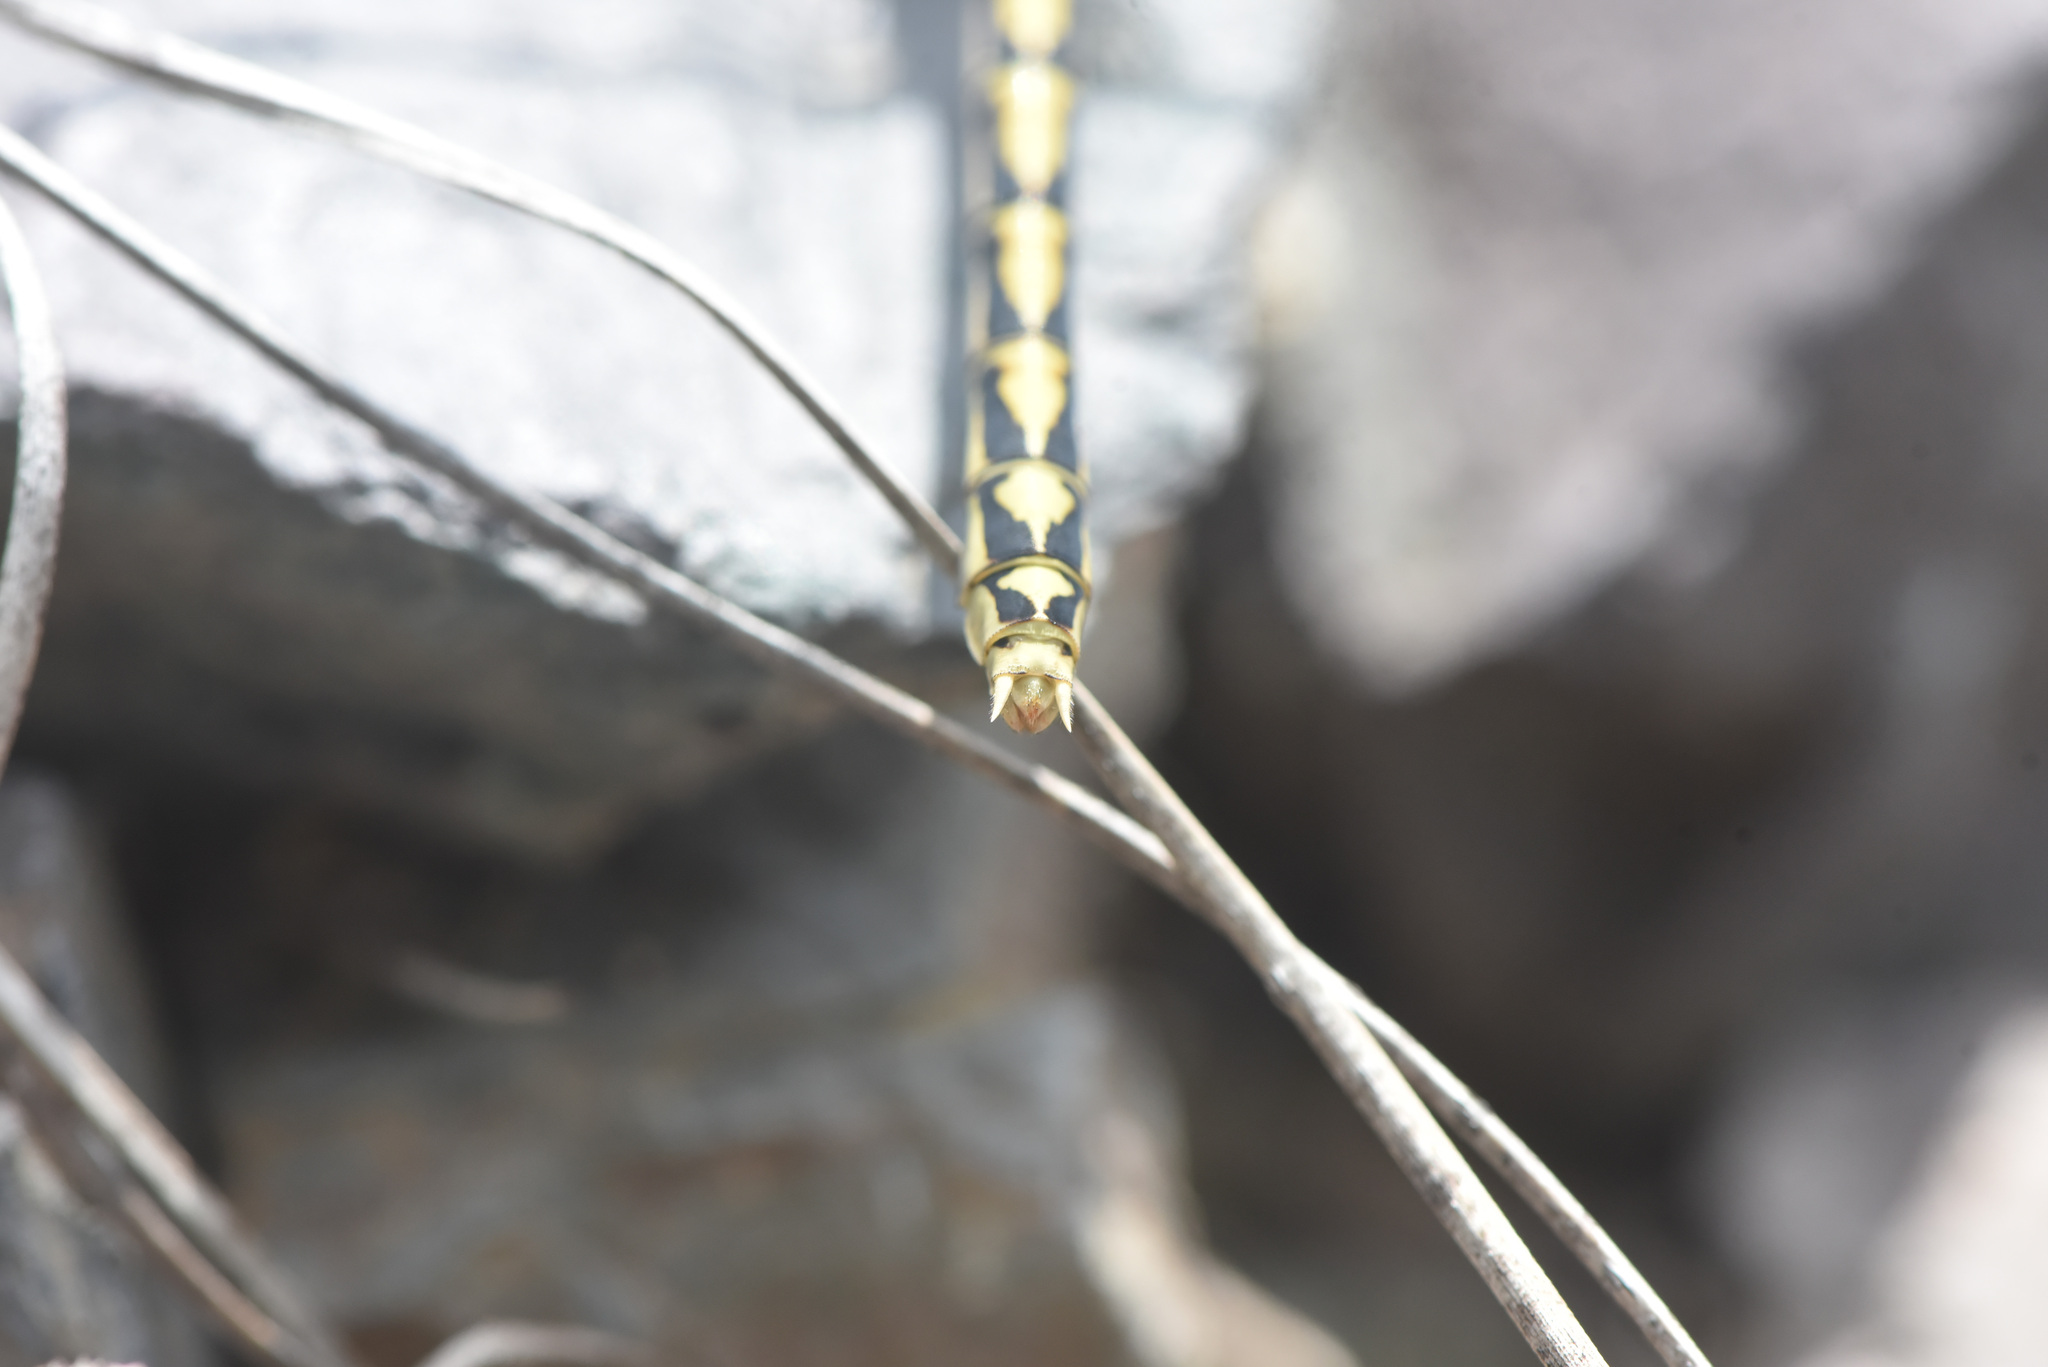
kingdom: Animalia
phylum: Arthropoda
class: Insecta
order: Odonata
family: Gomphidae
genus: Ophiogomphus
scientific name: Ophiogomphus severus
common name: Pale snaketail
